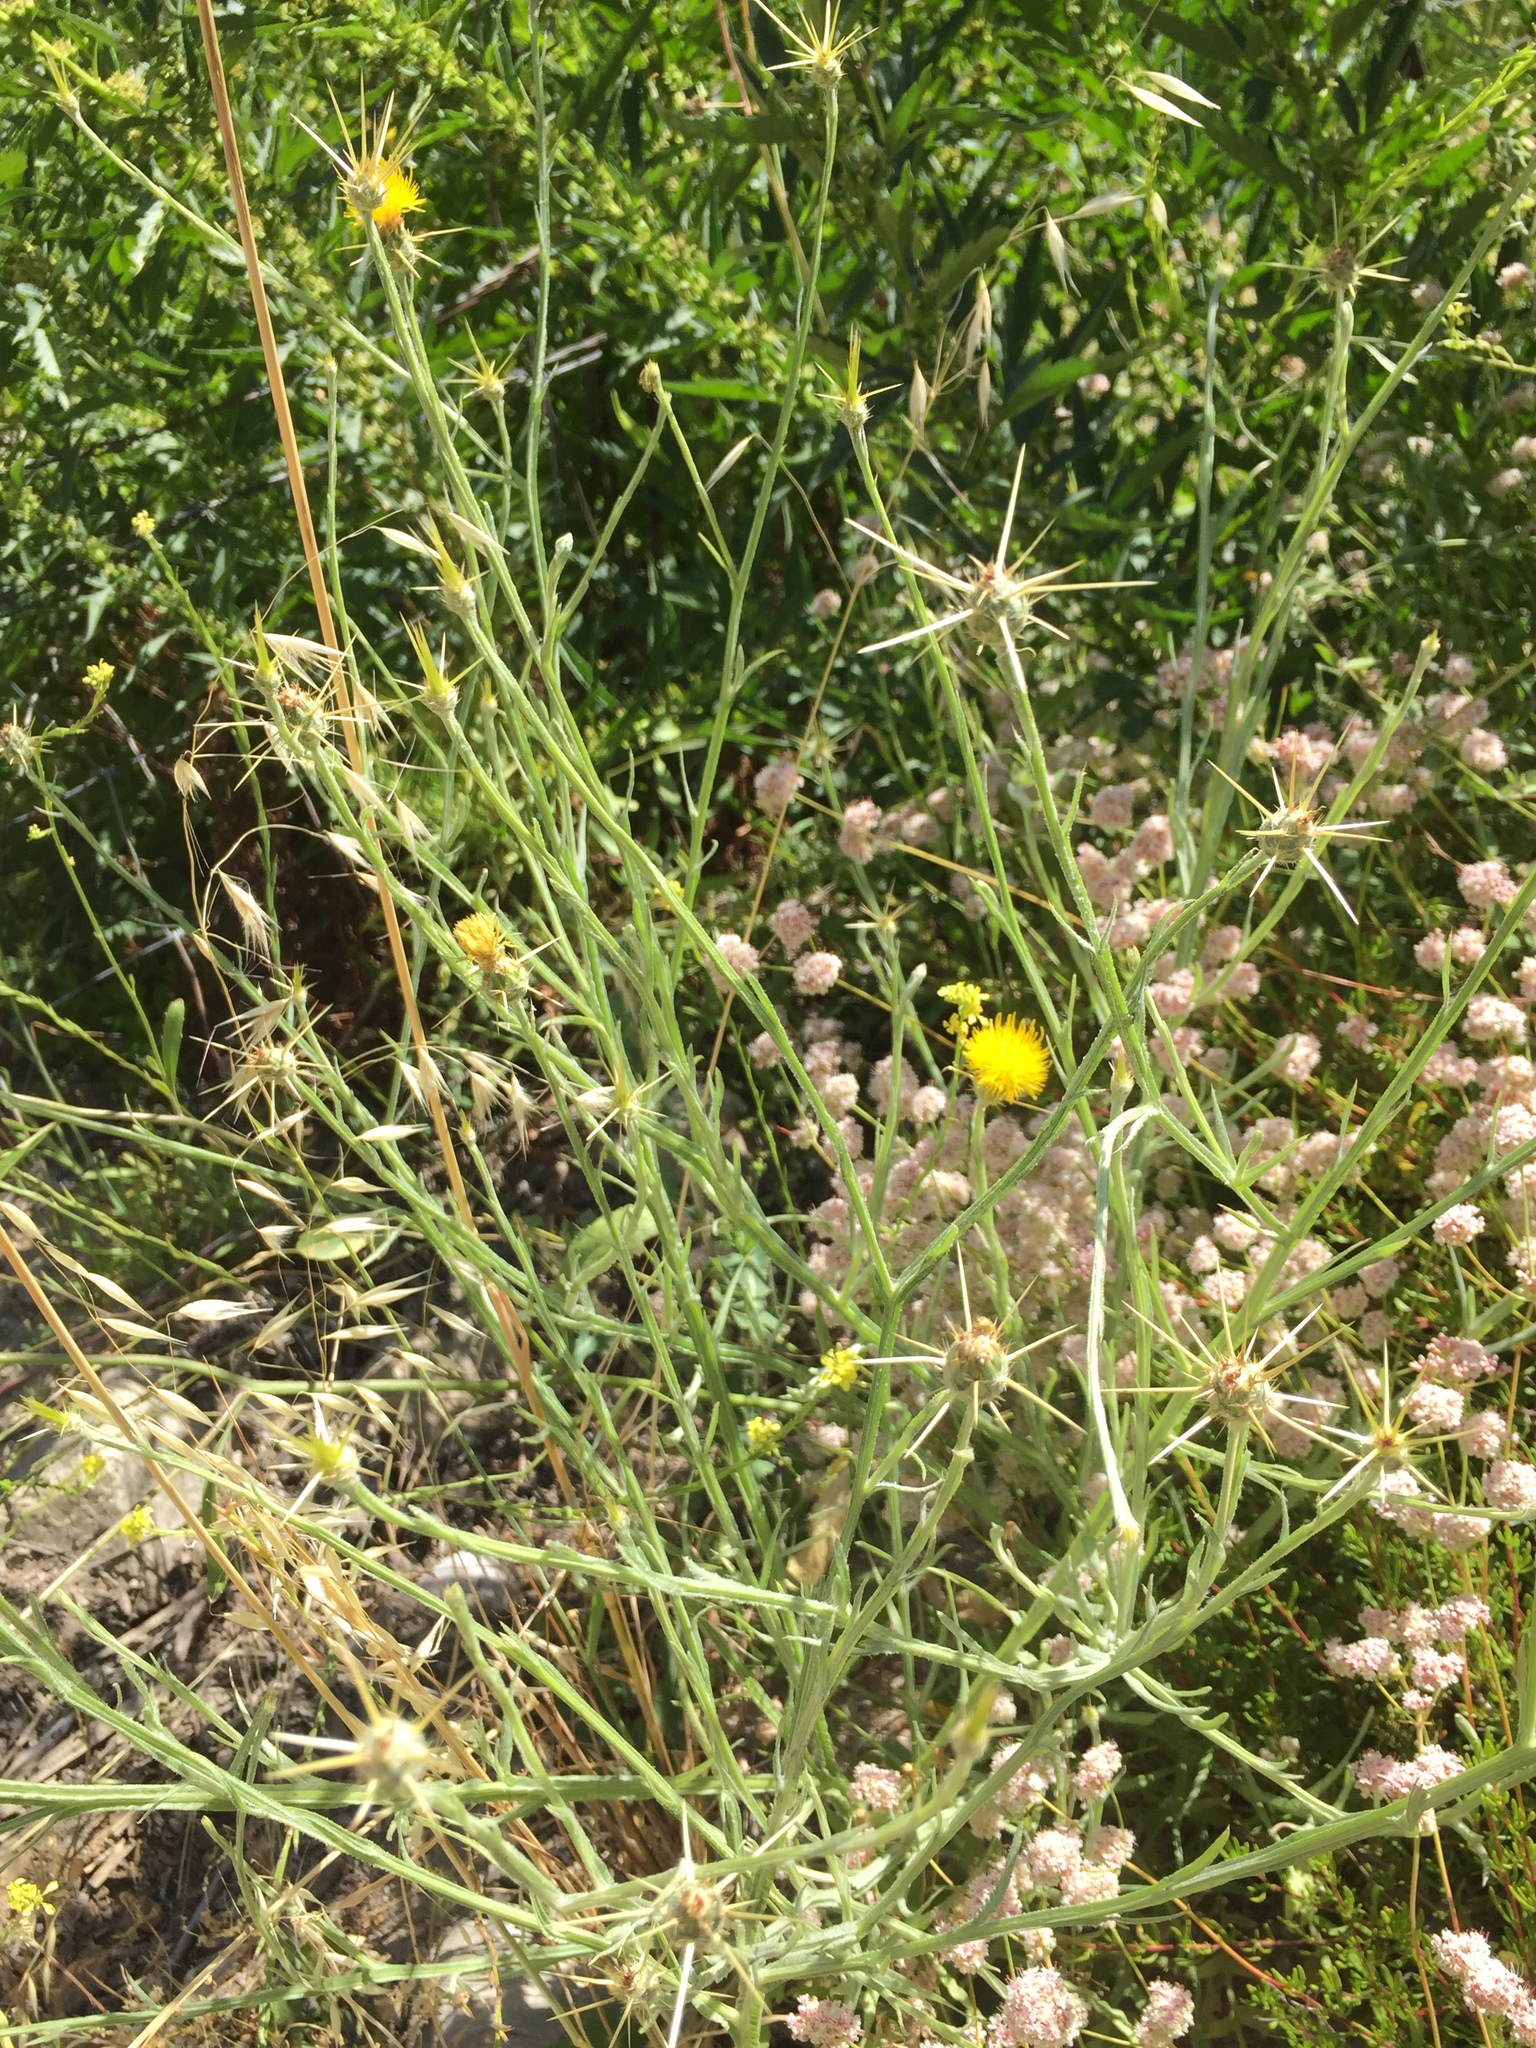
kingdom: Plantae
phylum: Tracheophyta
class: Magnoliopsida
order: Asterales
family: Asteraceae
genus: Centaurea
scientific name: Centaurea solstitialis
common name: Yellow star-thistle
